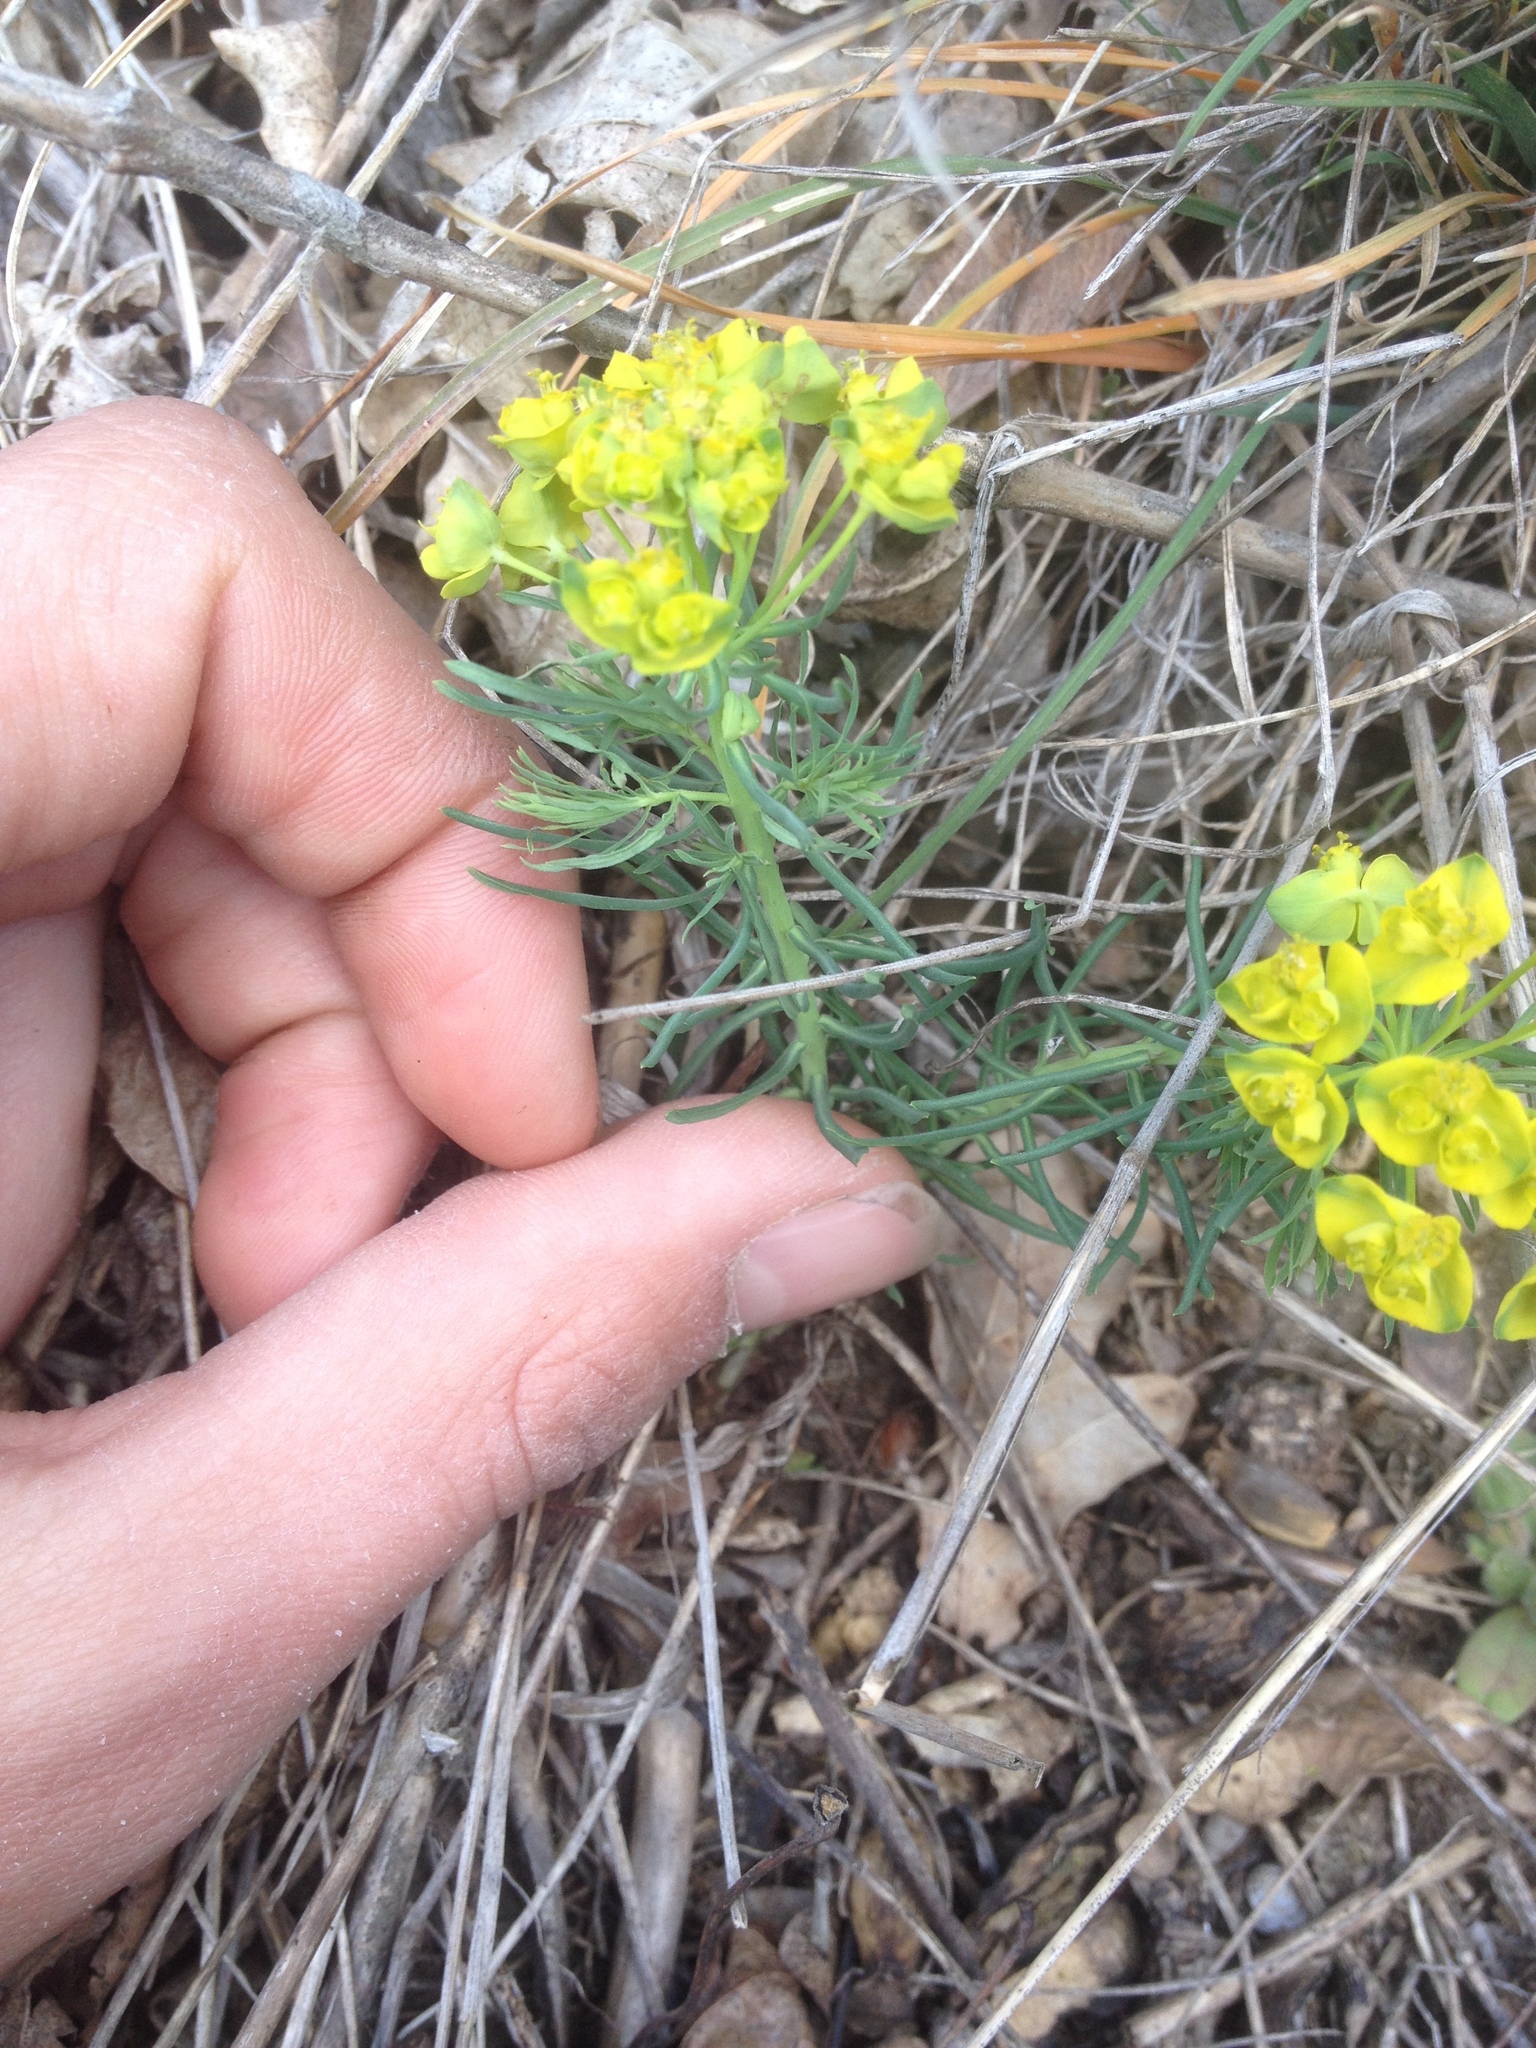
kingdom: Plantae
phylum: Tracheophyta
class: Magnoliopsida
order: Malpighiales
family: Euphorbiaceae
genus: Euphorbia
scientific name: Euphorbia cyparissias
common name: Cypress spurge
